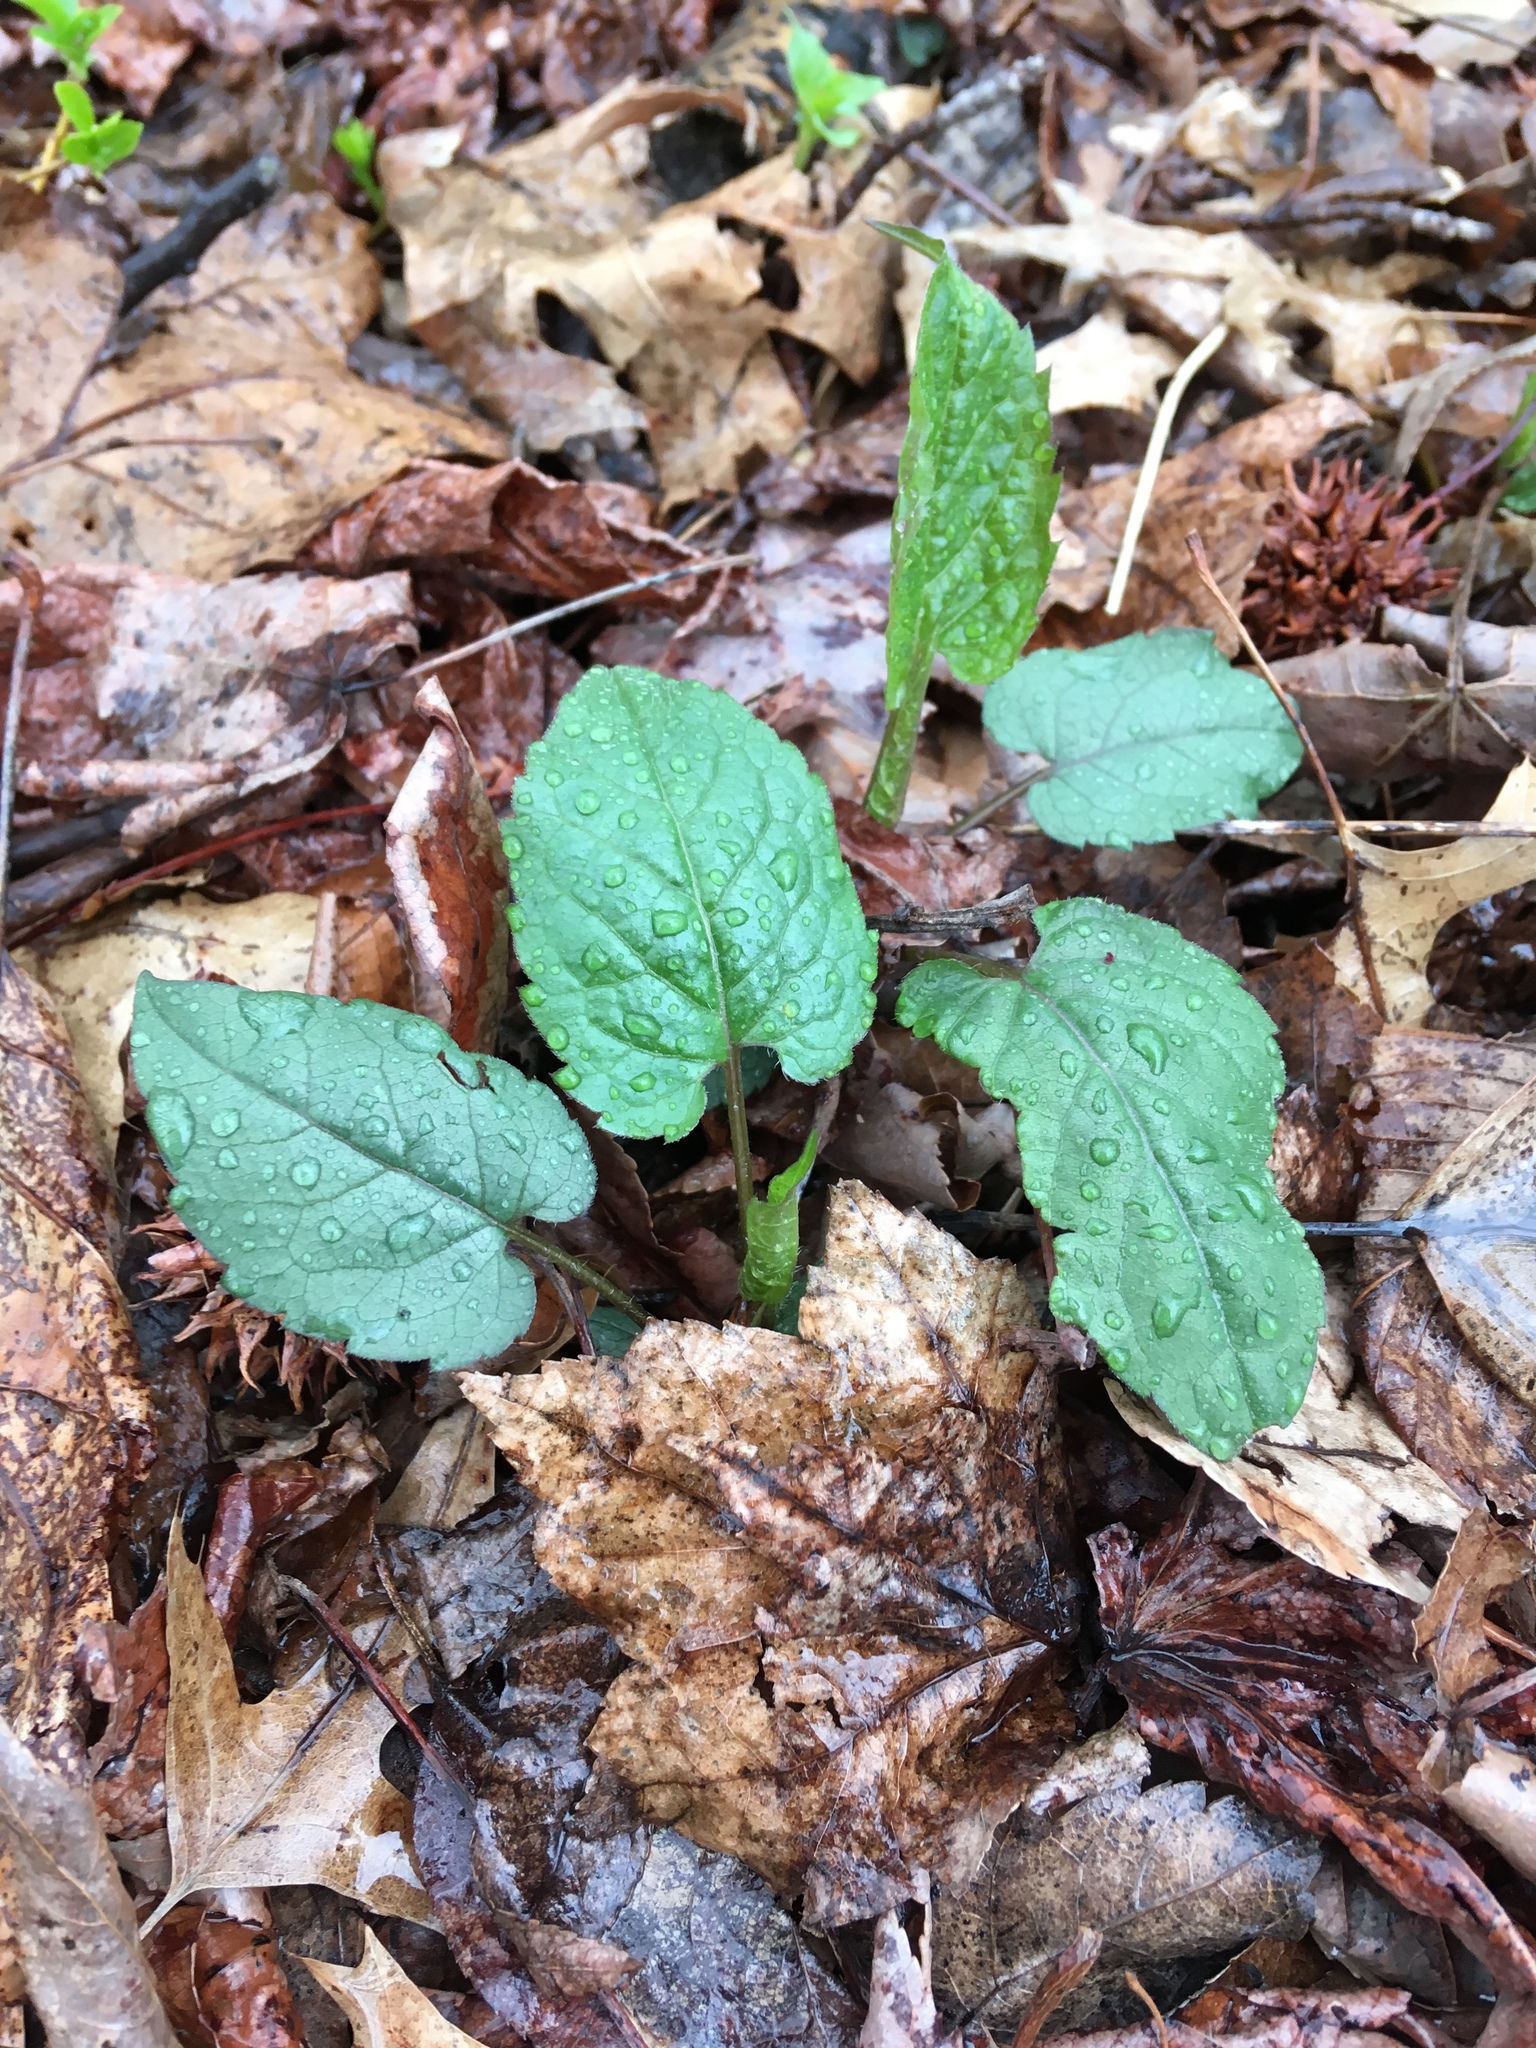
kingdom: Plantae
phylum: Tracheophyta
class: Magnoliopsida
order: Asterales
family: Asteraceae
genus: Eurybia
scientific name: Eurybia divaricata
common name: White wood aster
